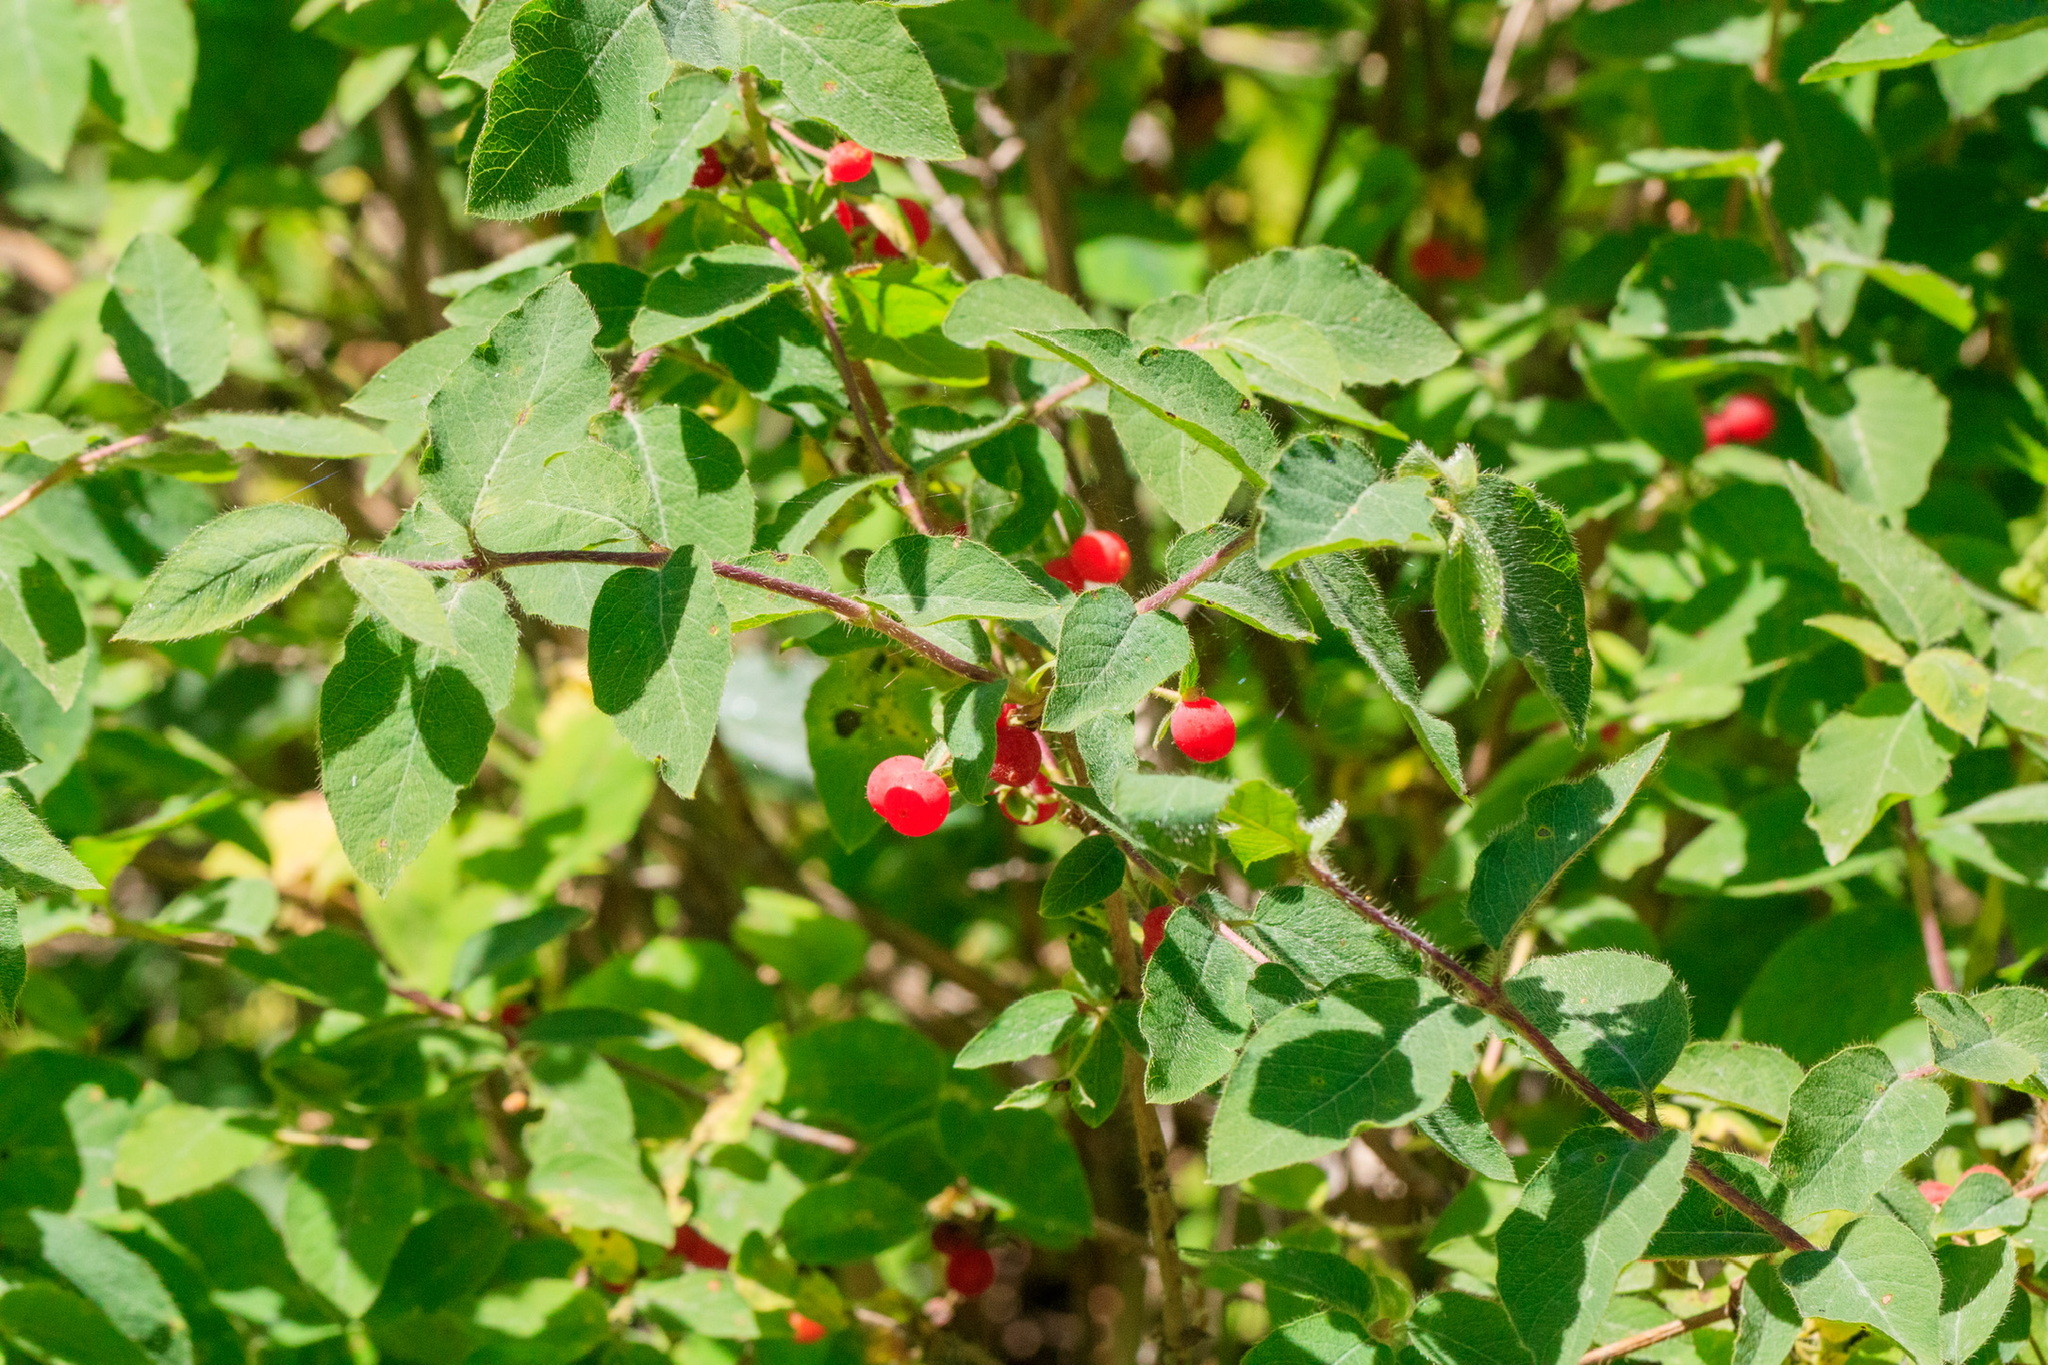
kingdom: Plantae
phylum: Tracheophyta
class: Magnoliopsida
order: Dipsacales
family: Caprifoliaceae
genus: Lonicera
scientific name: Lonicera altmannii
